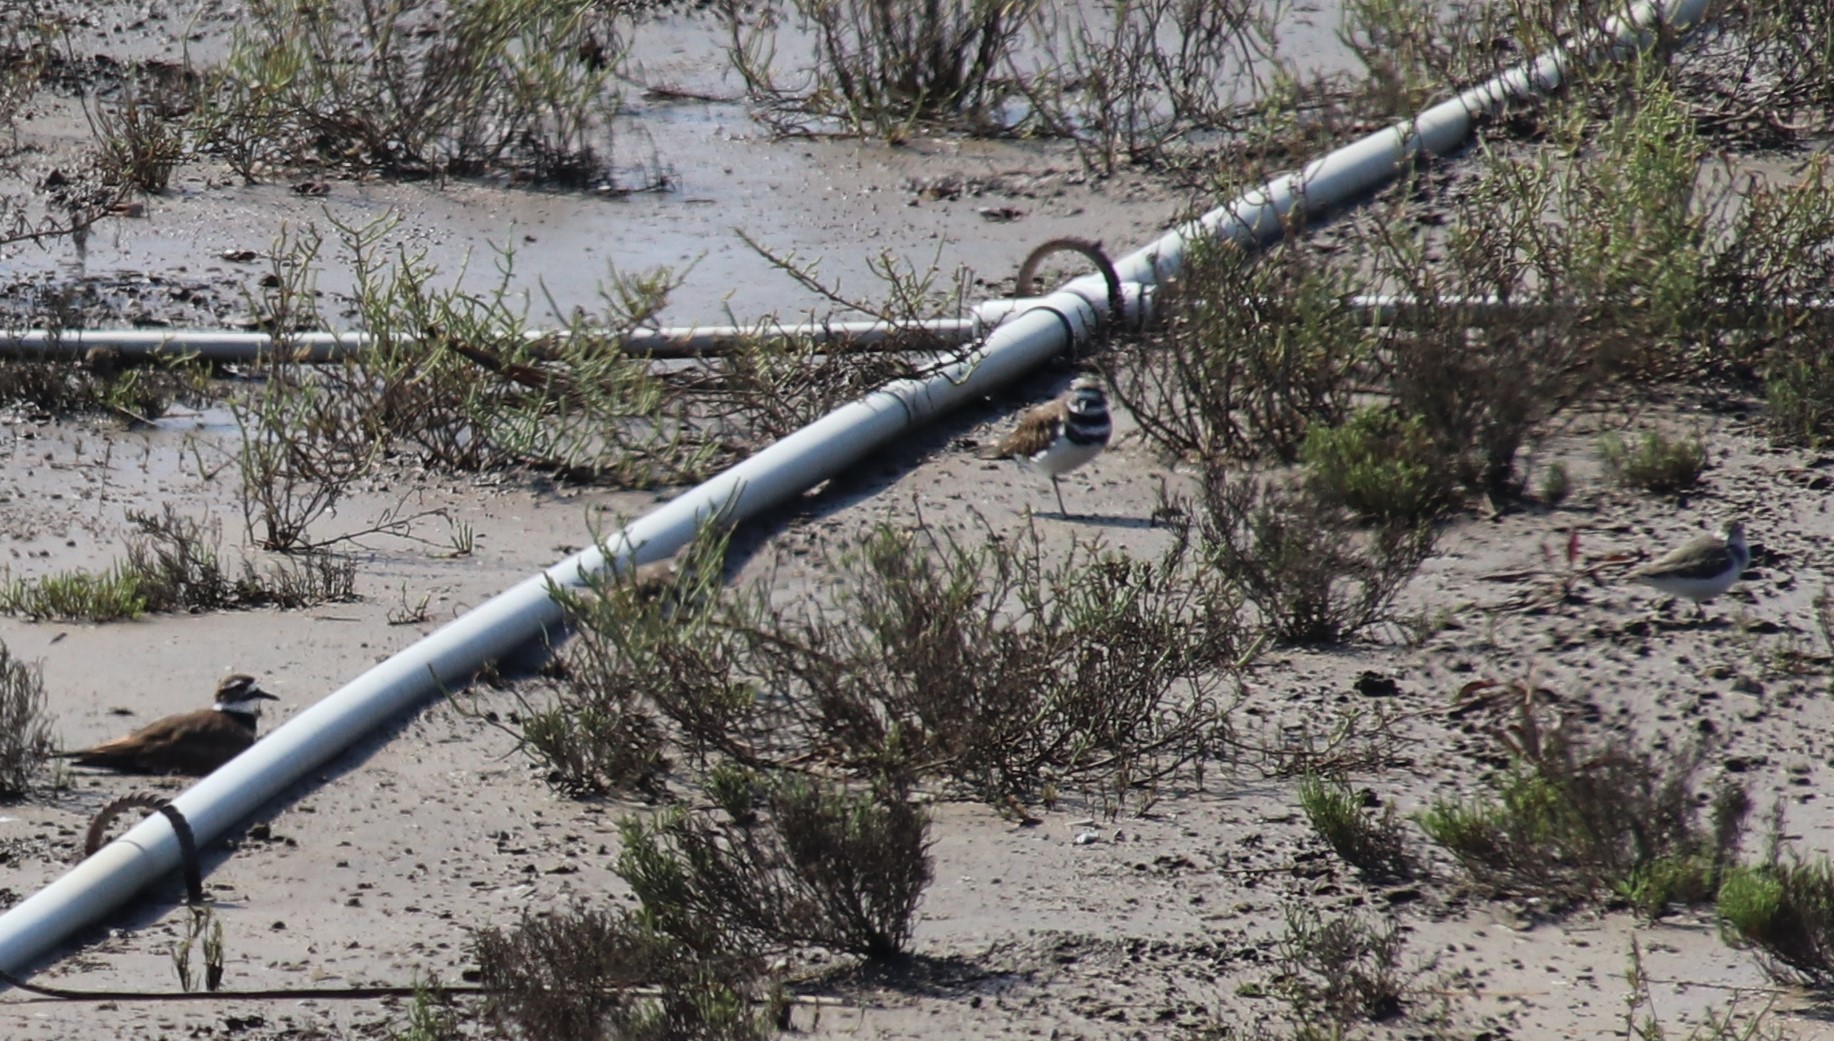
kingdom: Animalia
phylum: Chordata
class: Aves
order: Charadriiformes
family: Charadriidae
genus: Charadrius
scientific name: Charadrius vociferus
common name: Killdeer
